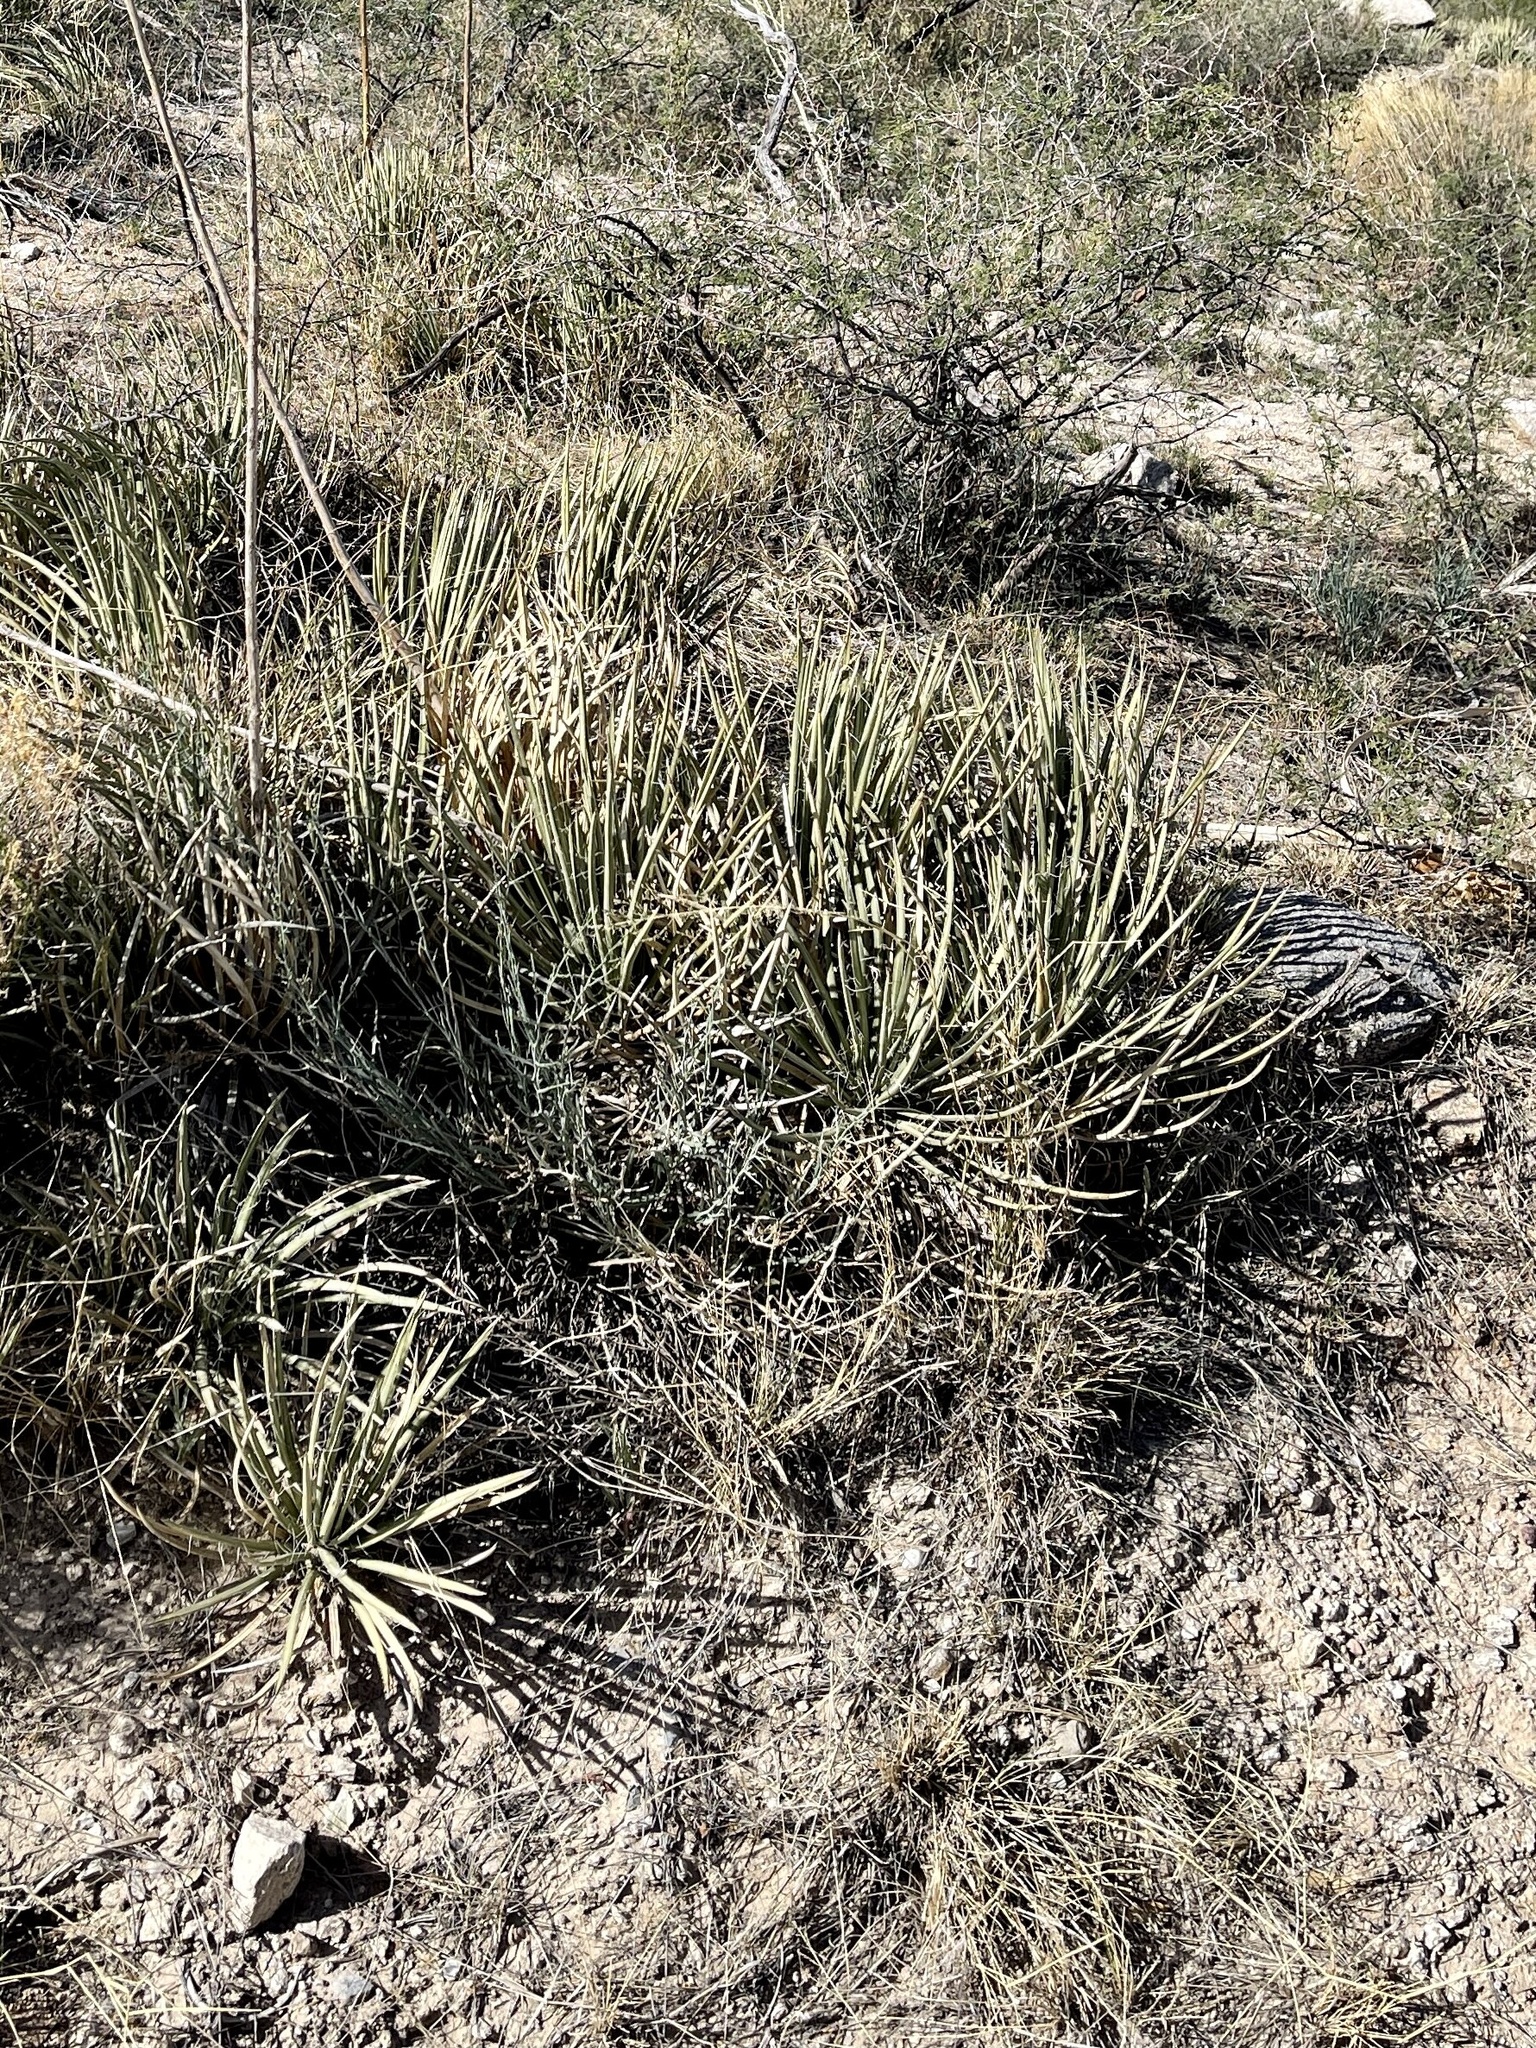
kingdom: Plantae
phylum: Tracheophyta
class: Liliopsida
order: Asparagales
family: Asparagaceae
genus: Agave
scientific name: Agave schottii
